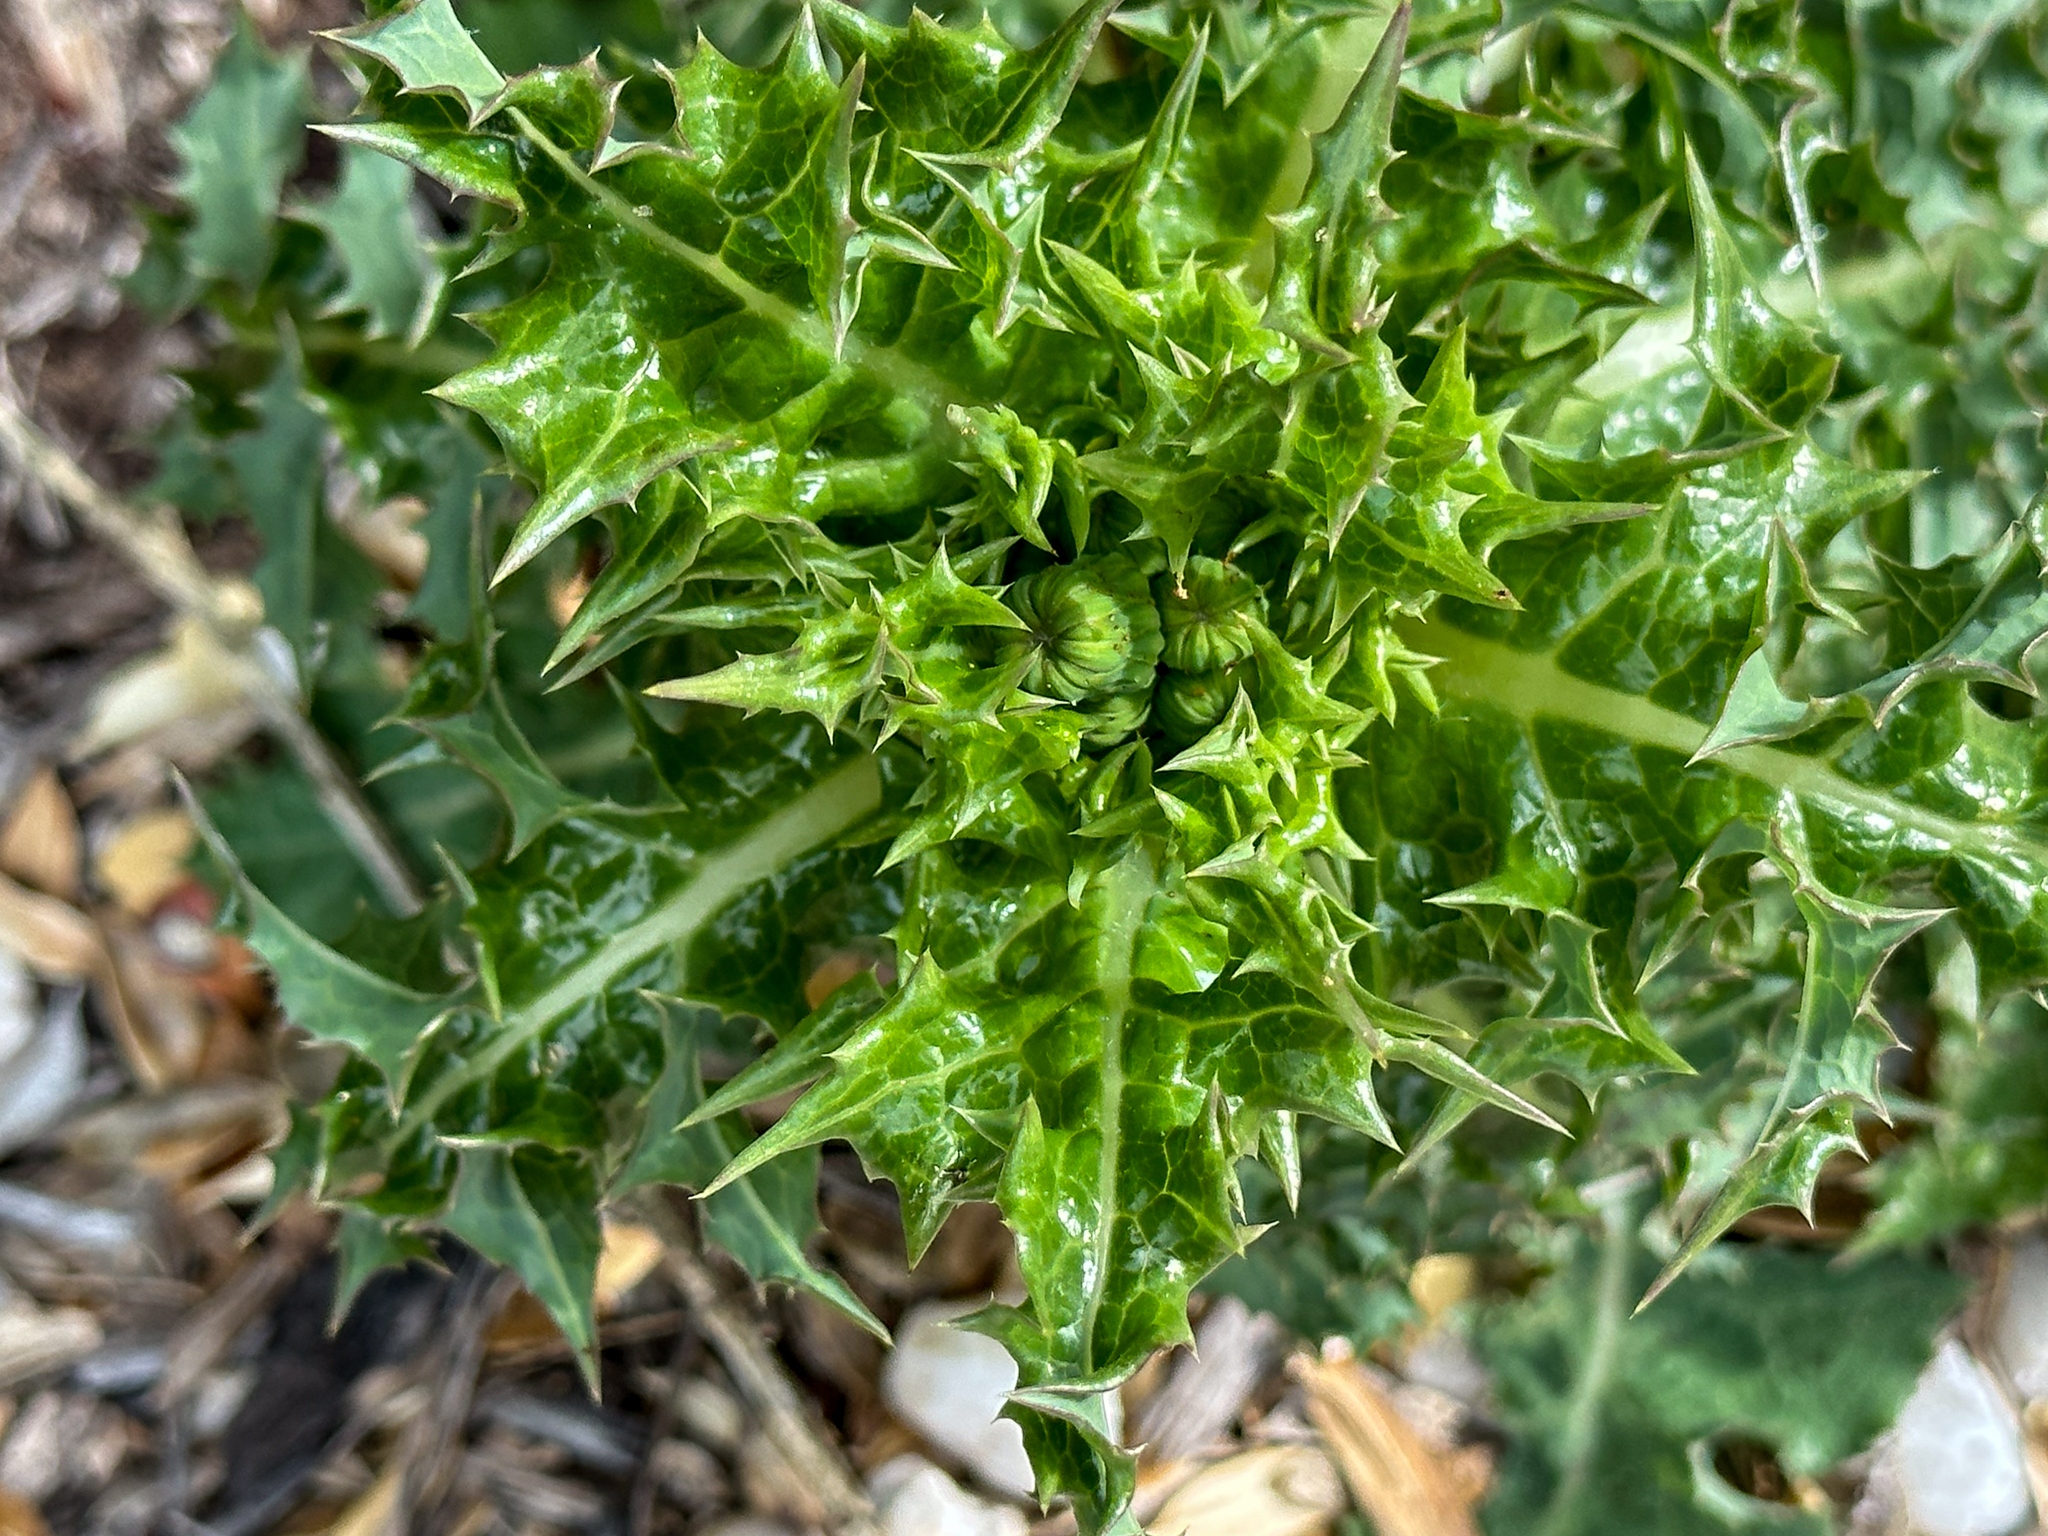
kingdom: Plantae
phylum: Tracheophyta
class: Magnoliopsida
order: Asterales
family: Asteraceae
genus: Sonchus
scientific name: Sonchus asper
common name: Prickly sow-thistle
